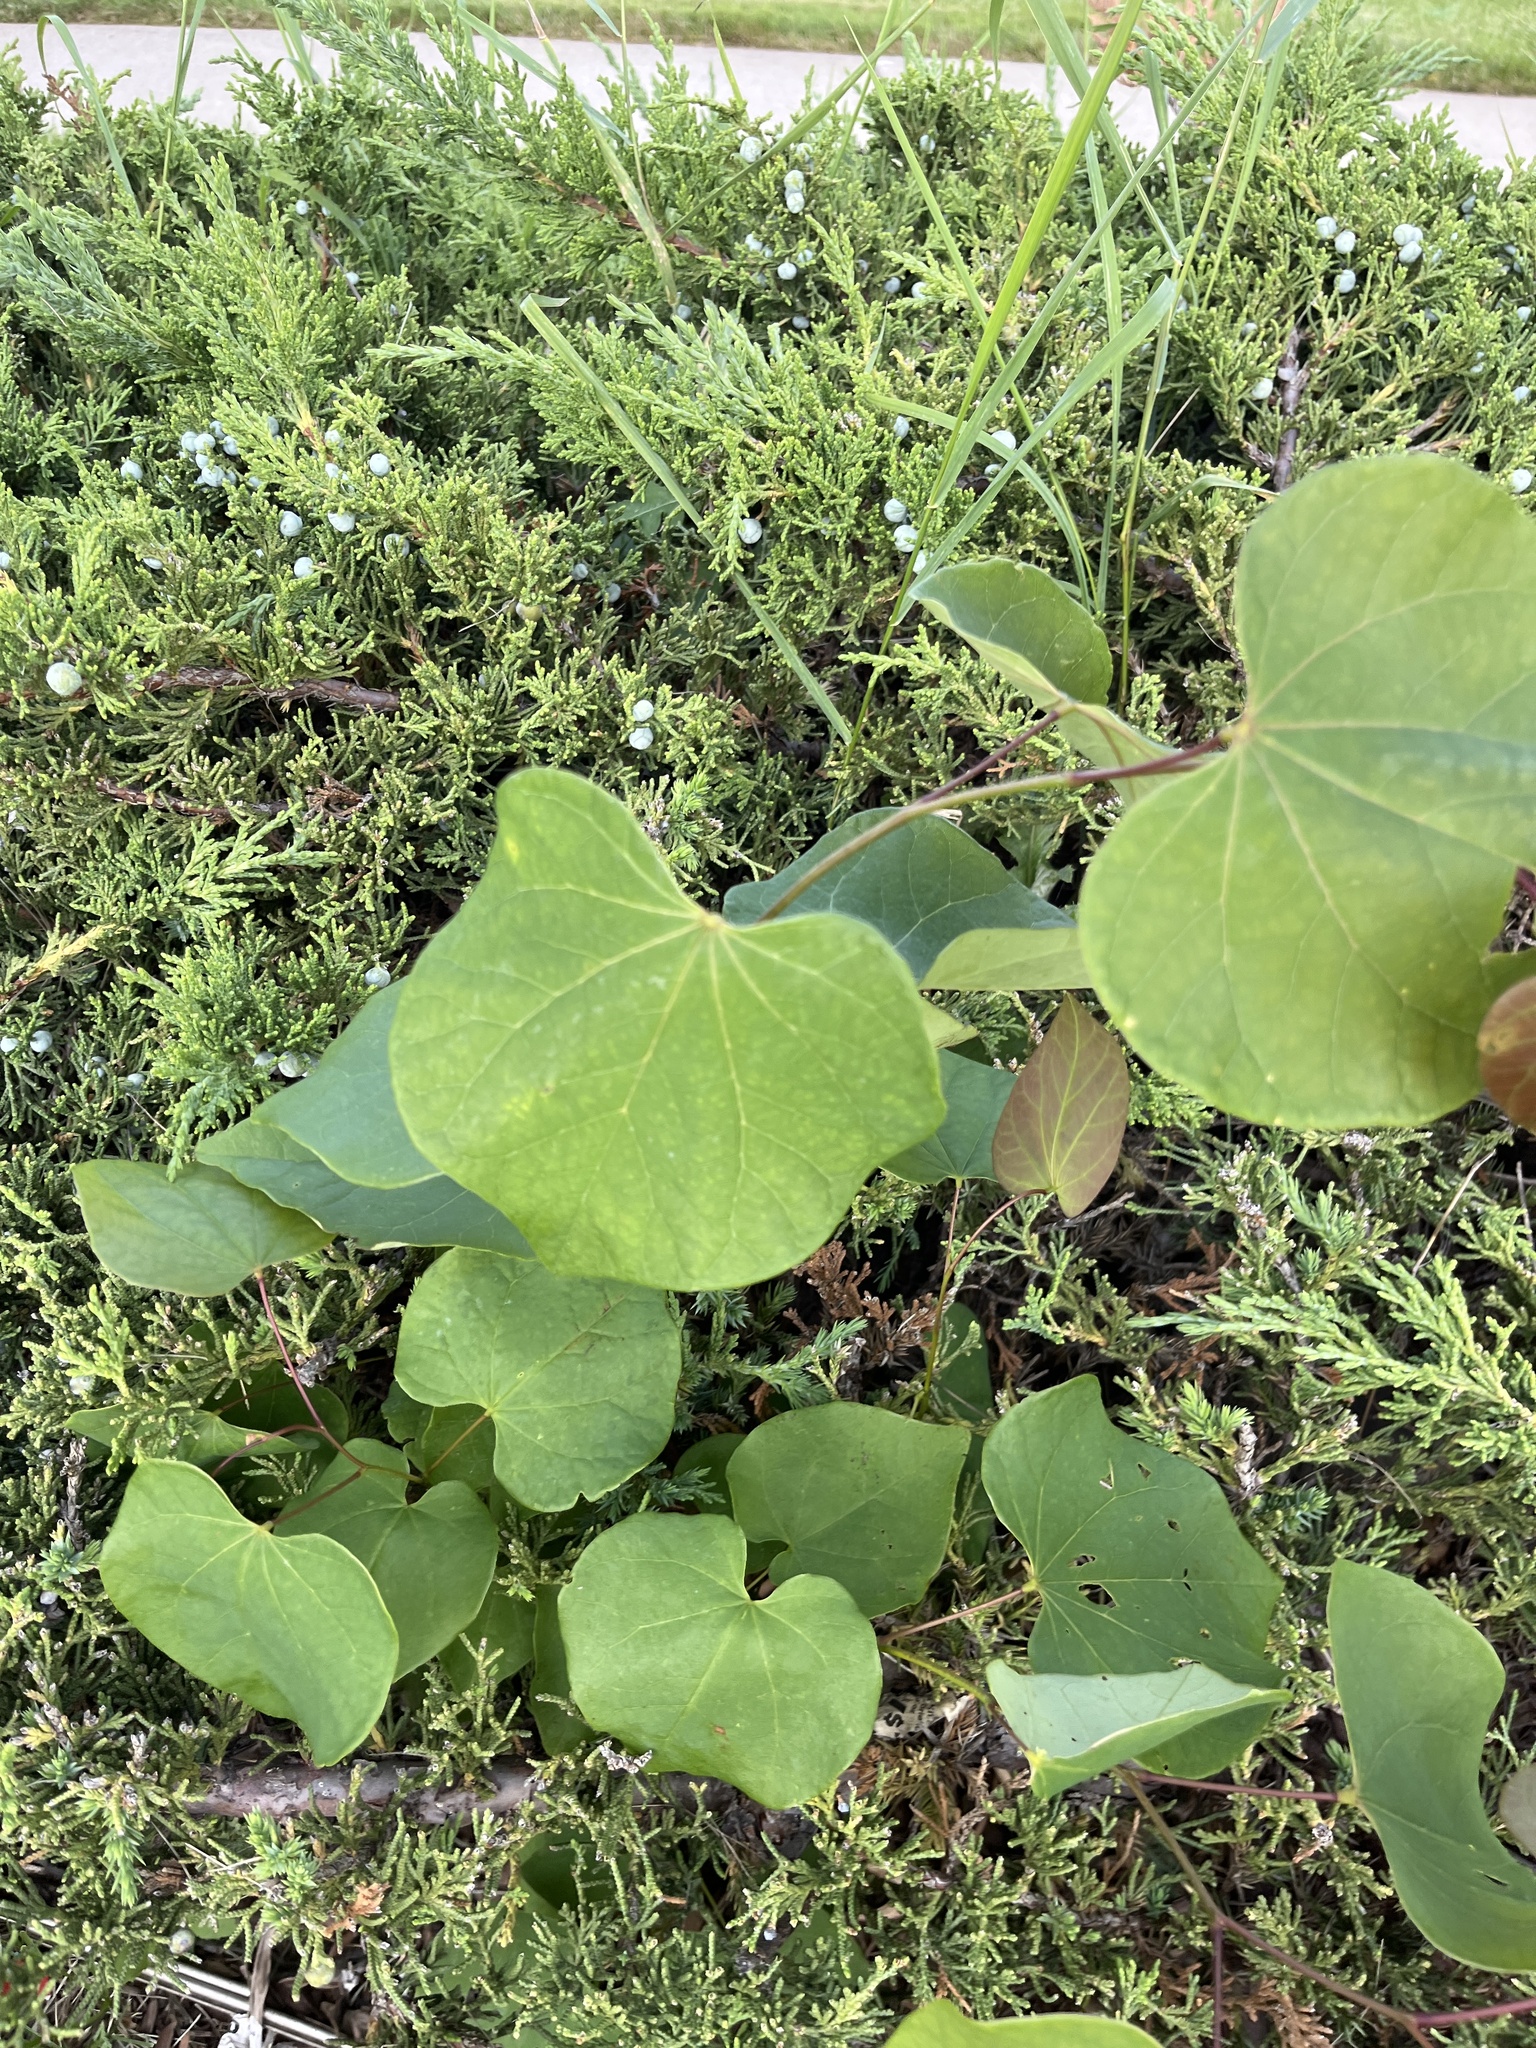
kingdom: Plantae
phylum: Tracheophyta
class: Magnoliopsida
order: Fabales
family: Fabaceae
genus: Cercis
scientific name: Cercis canadensis
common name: Eastern redbud
